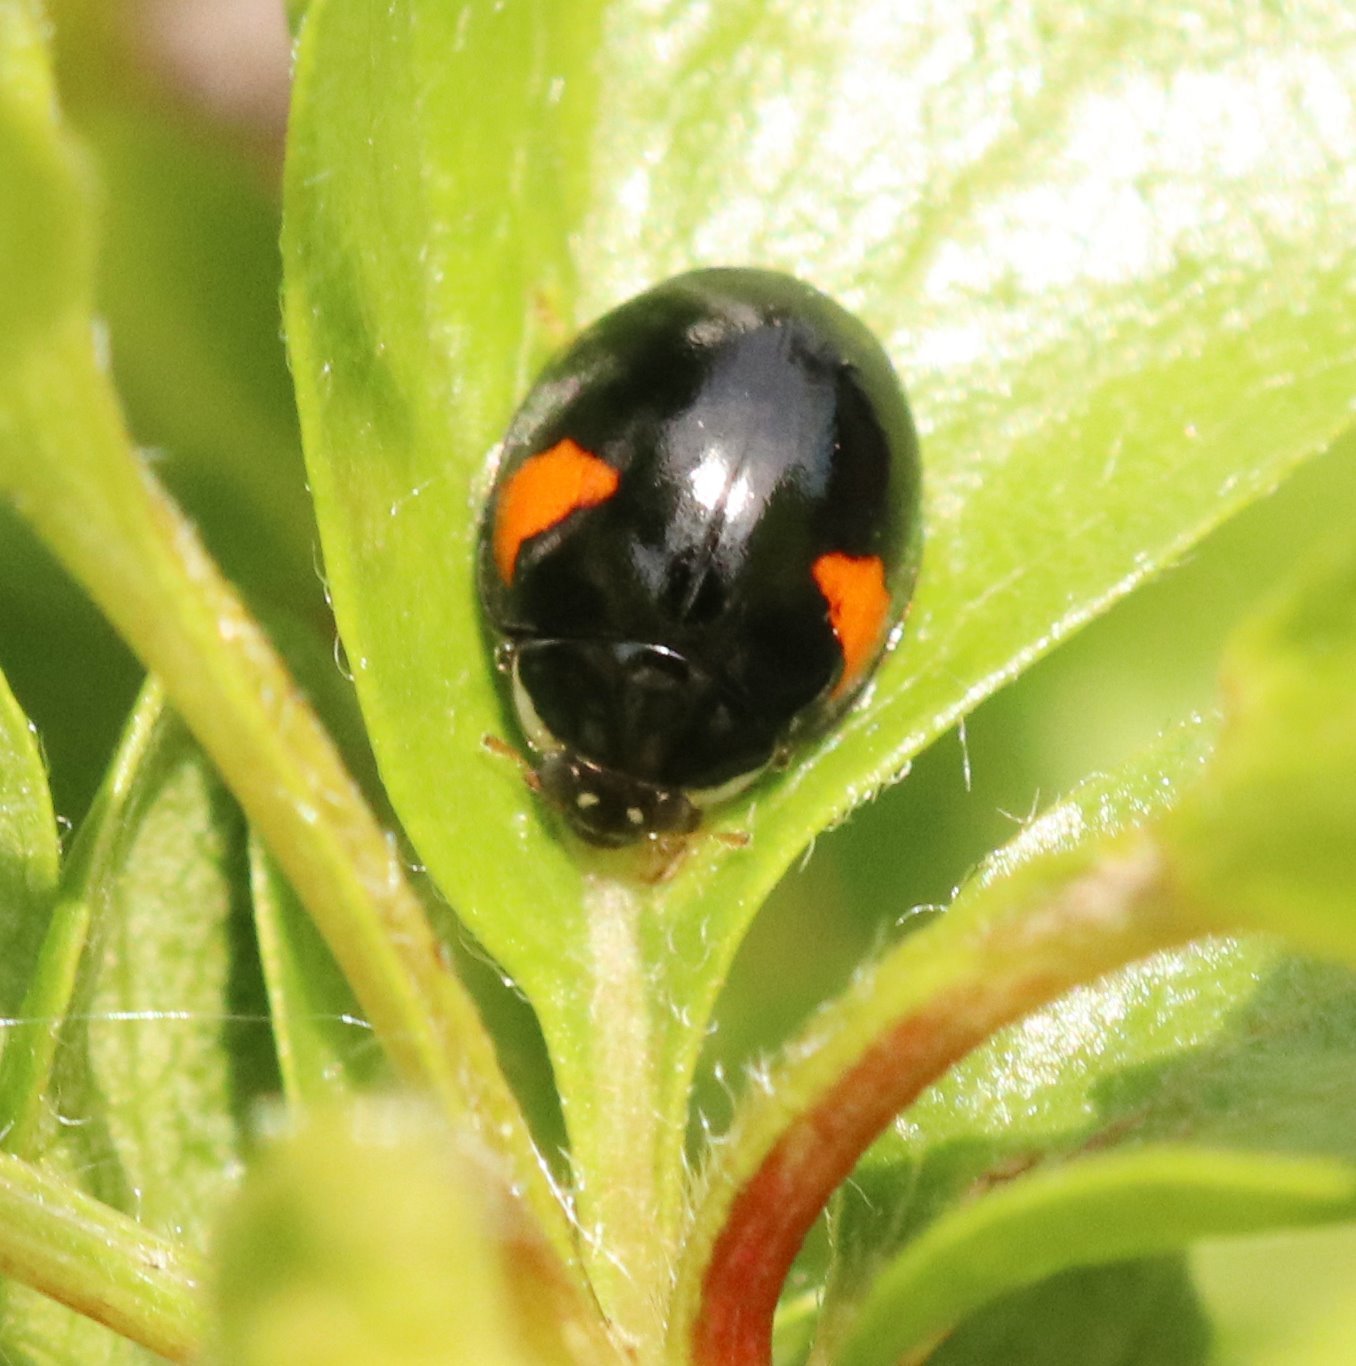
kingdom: Animalia
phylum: Arthropoda
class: Insecta
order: Coleoptera
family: Coccinellidae
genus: Adalia
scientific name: Adalia decempunctata
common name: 10-spot ladybird
